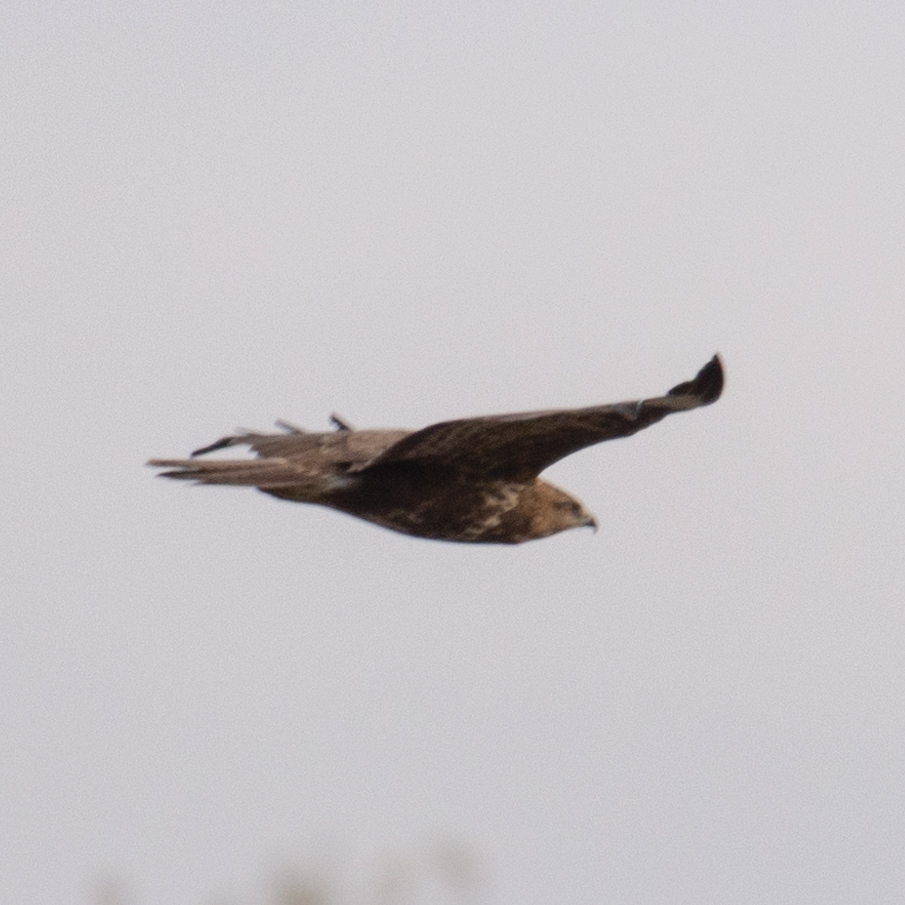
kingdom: Animalia
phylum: Chordata
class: Aves
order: Accipitriformes
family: Accipitridae
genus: Buteo
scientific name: Buteo buteo
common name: Common buzzard
